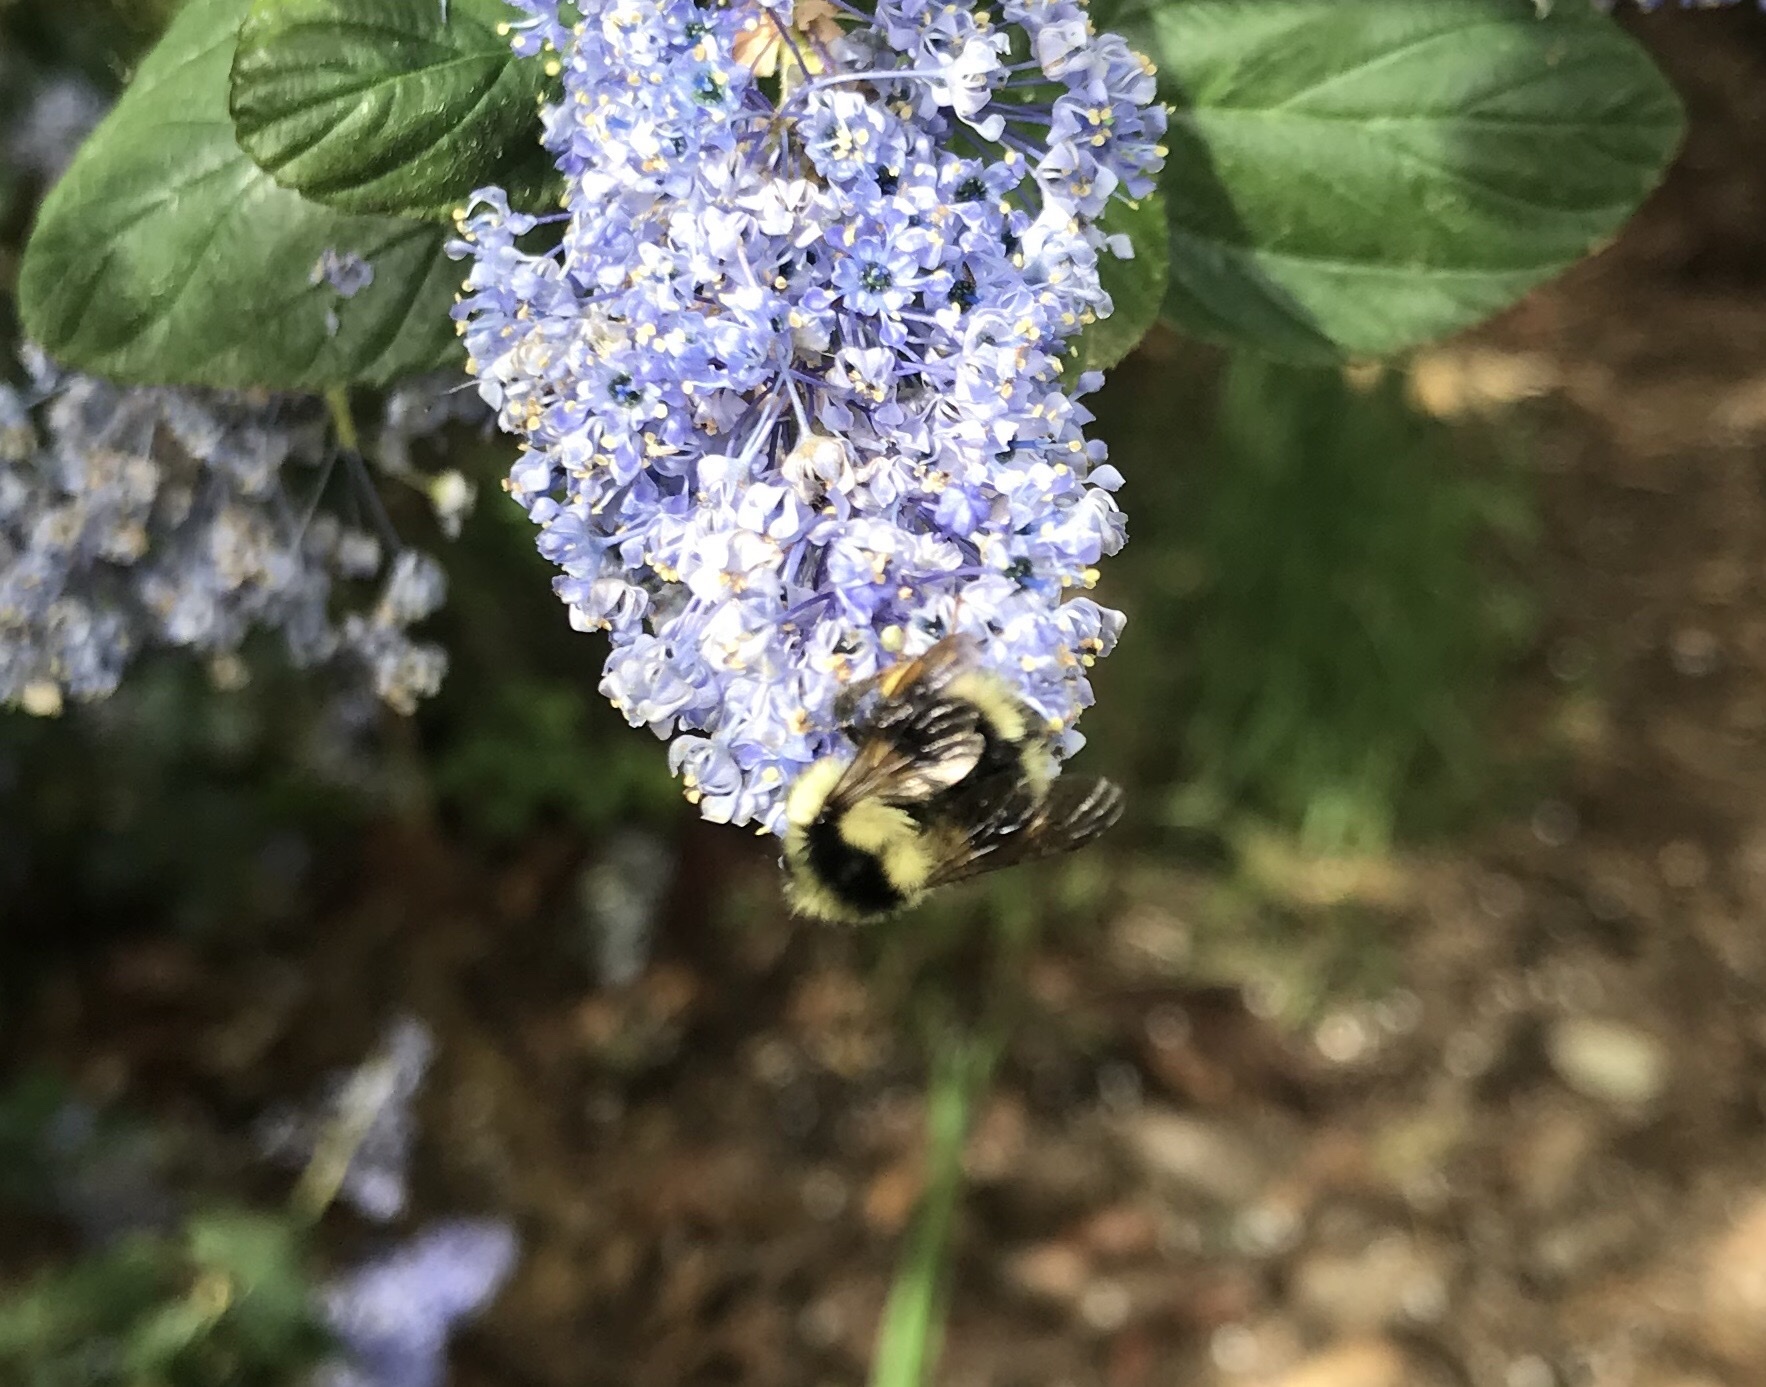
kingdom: Animalia
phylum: Arthropoda
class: Insecta
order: Hymenoptera
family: Apidae
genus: Bombus
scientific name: Bombus melanopygus
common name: Black tail bumble bee
